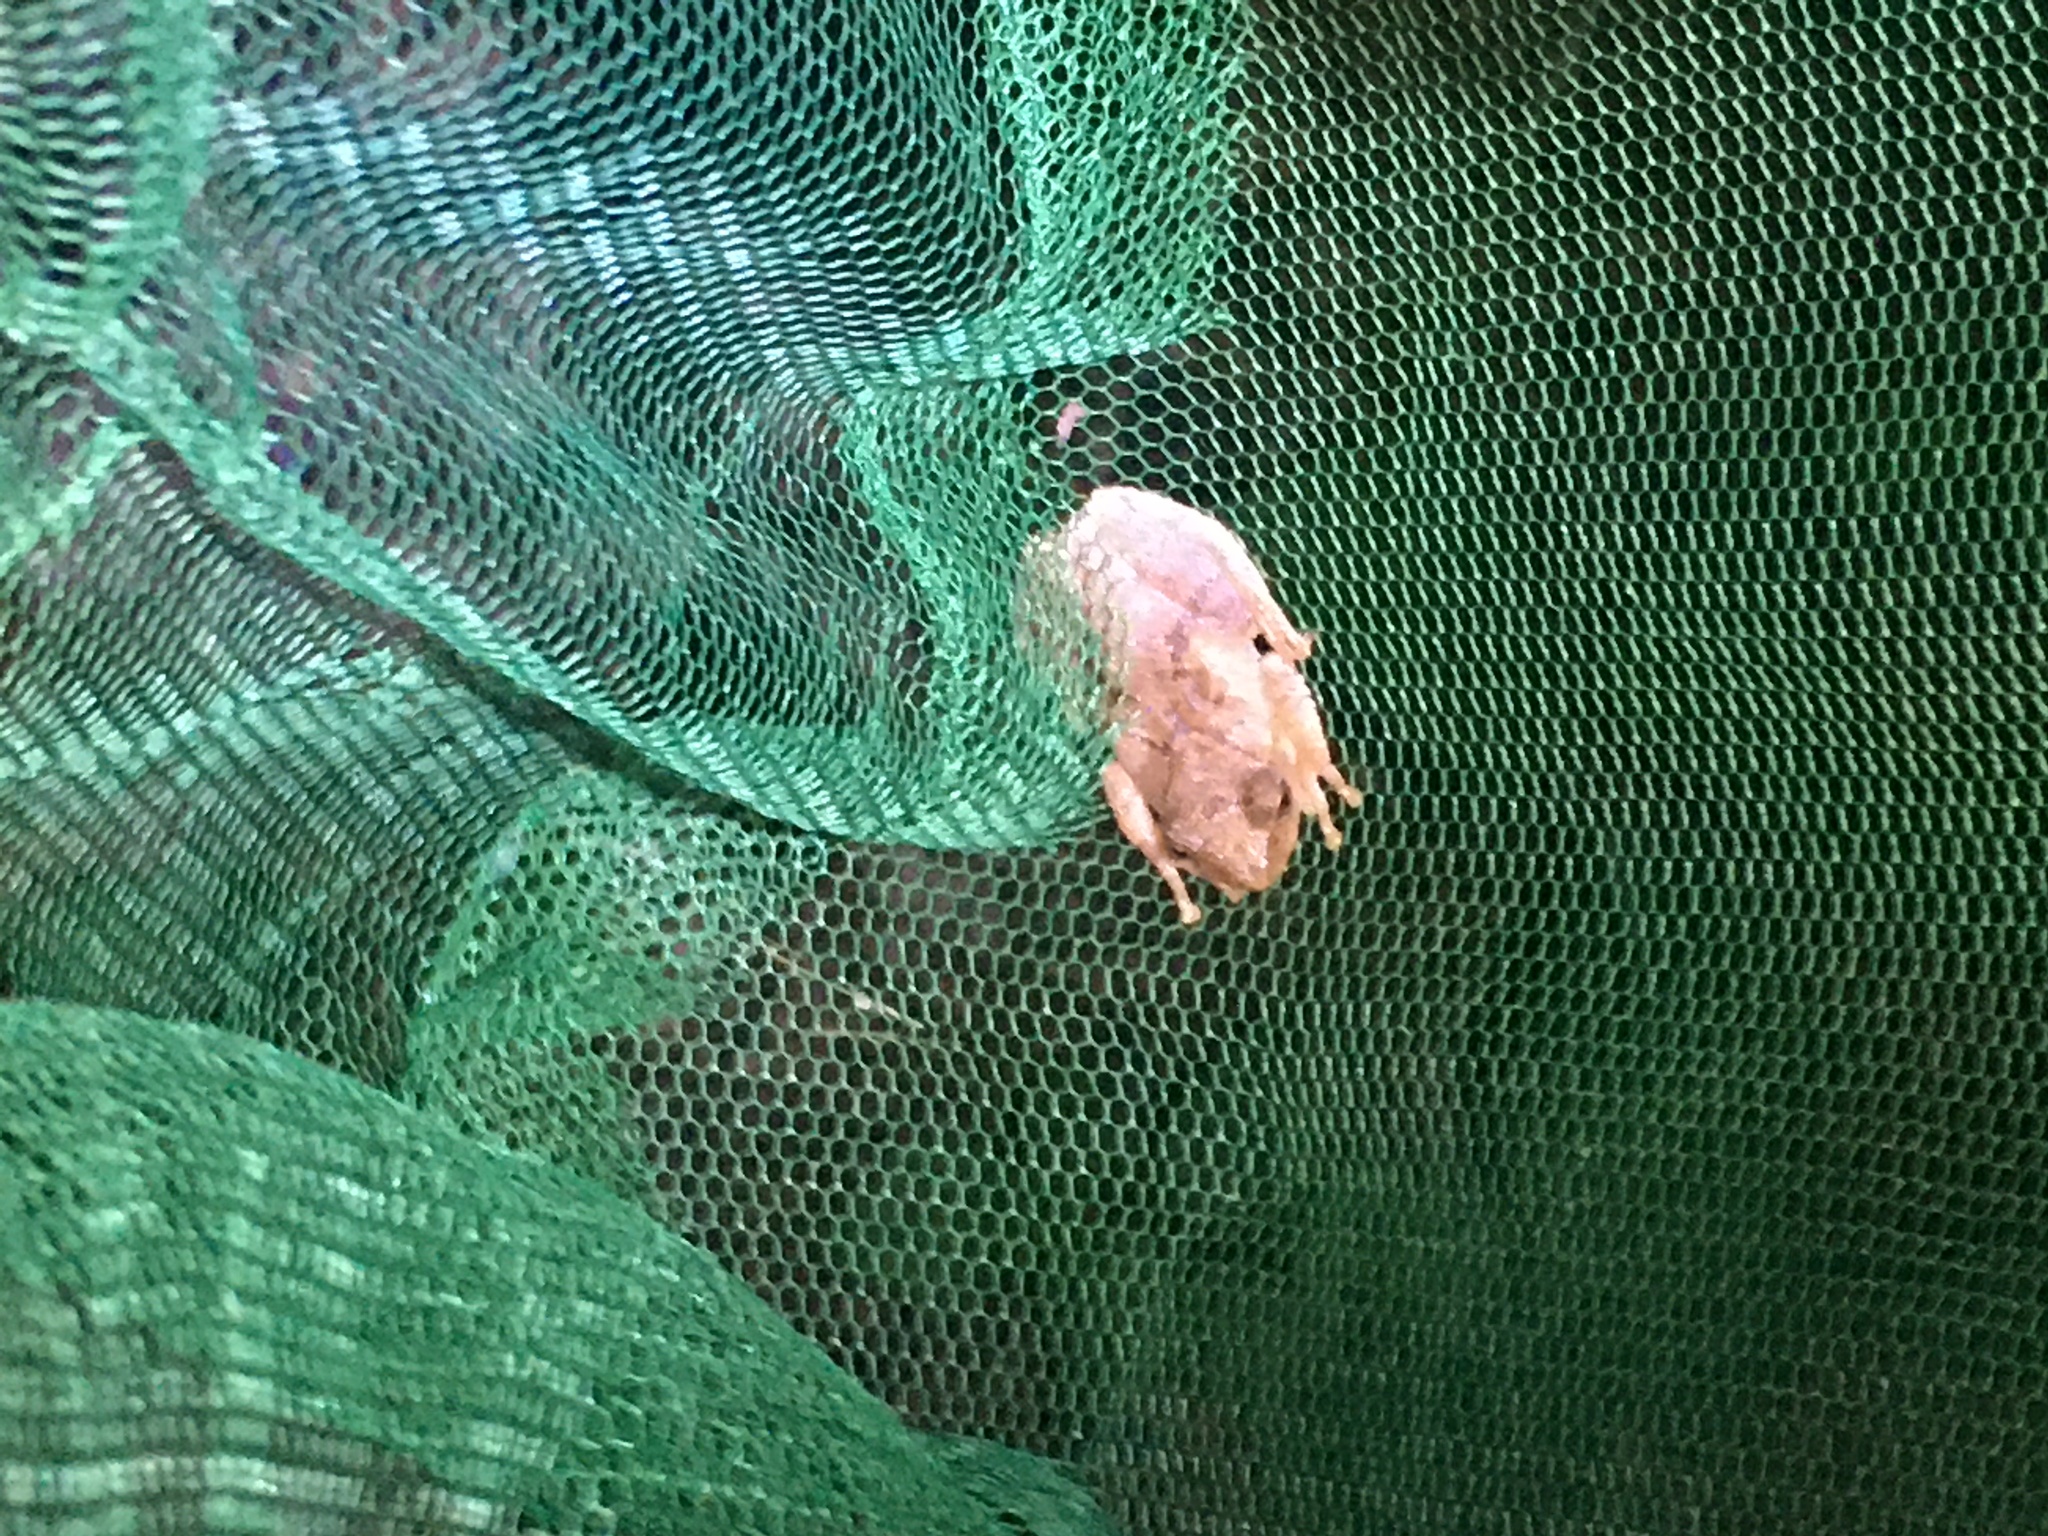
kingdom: Animalia
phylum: Chordata
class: Amphibia
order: Anura
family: Hylidae
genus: Pseudacris
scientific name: Pseudacris crucifer
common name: Spring peeper
